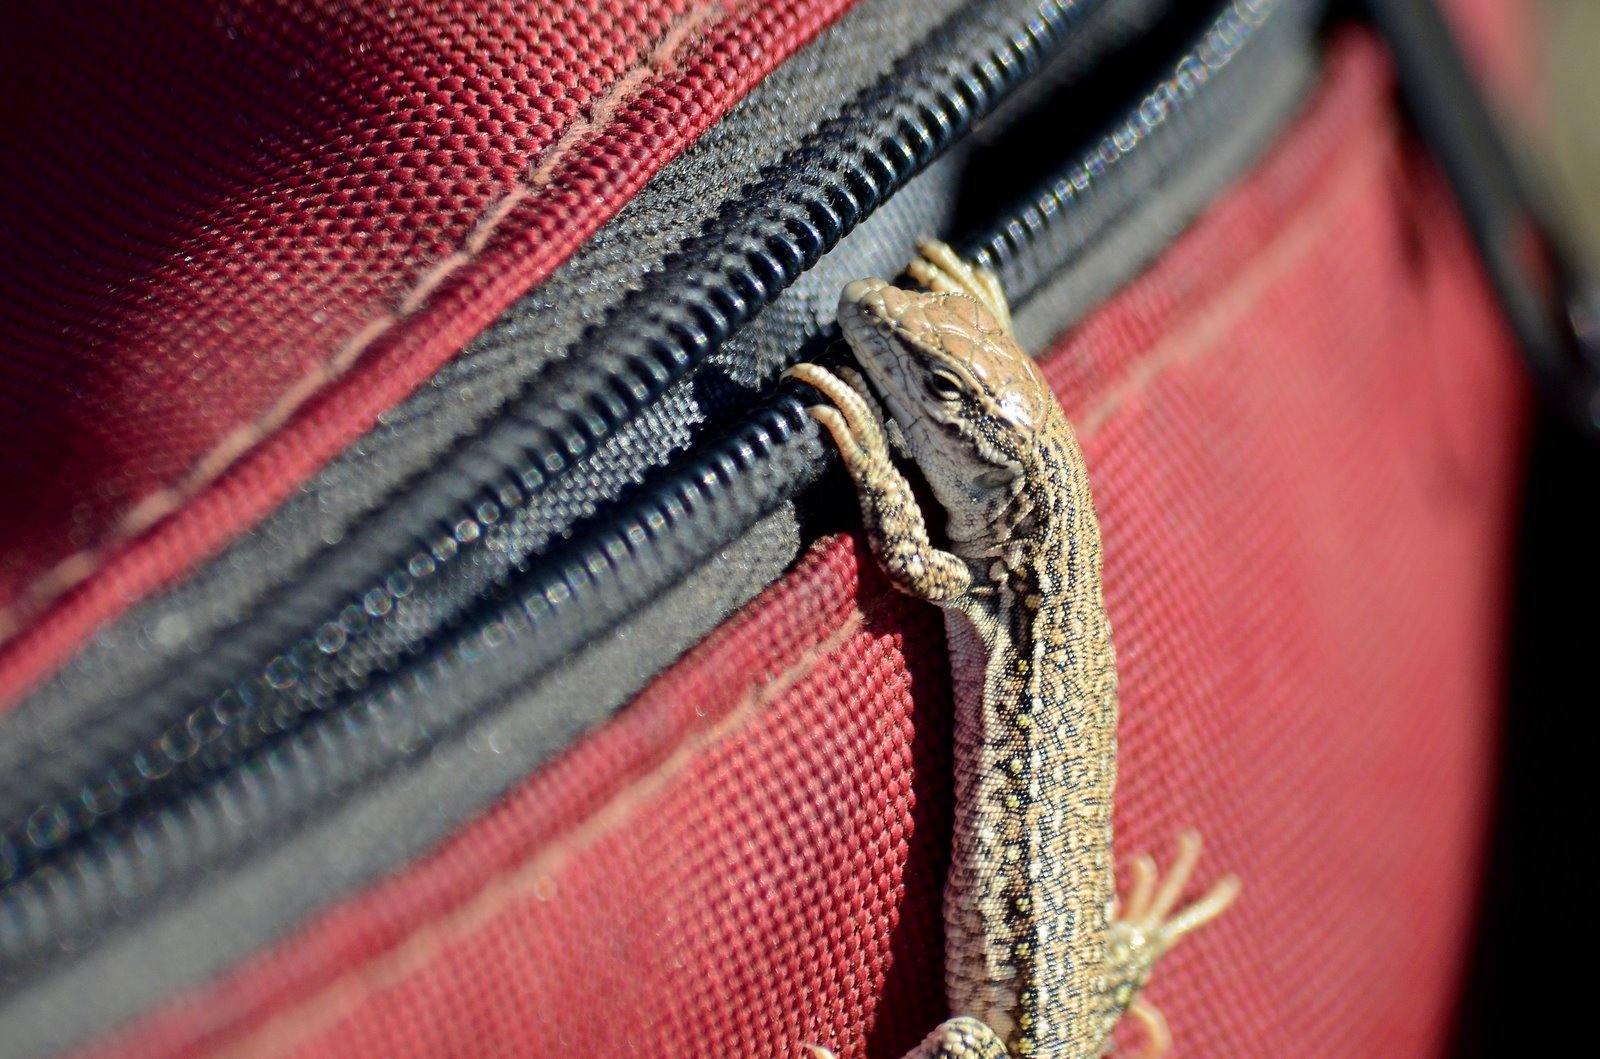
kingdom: Animalia
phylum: Chordata
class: Squamata
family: Lacertidae
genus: Eremias
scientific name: Eremias multiocellata
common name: Multi-ocellated racerunner
